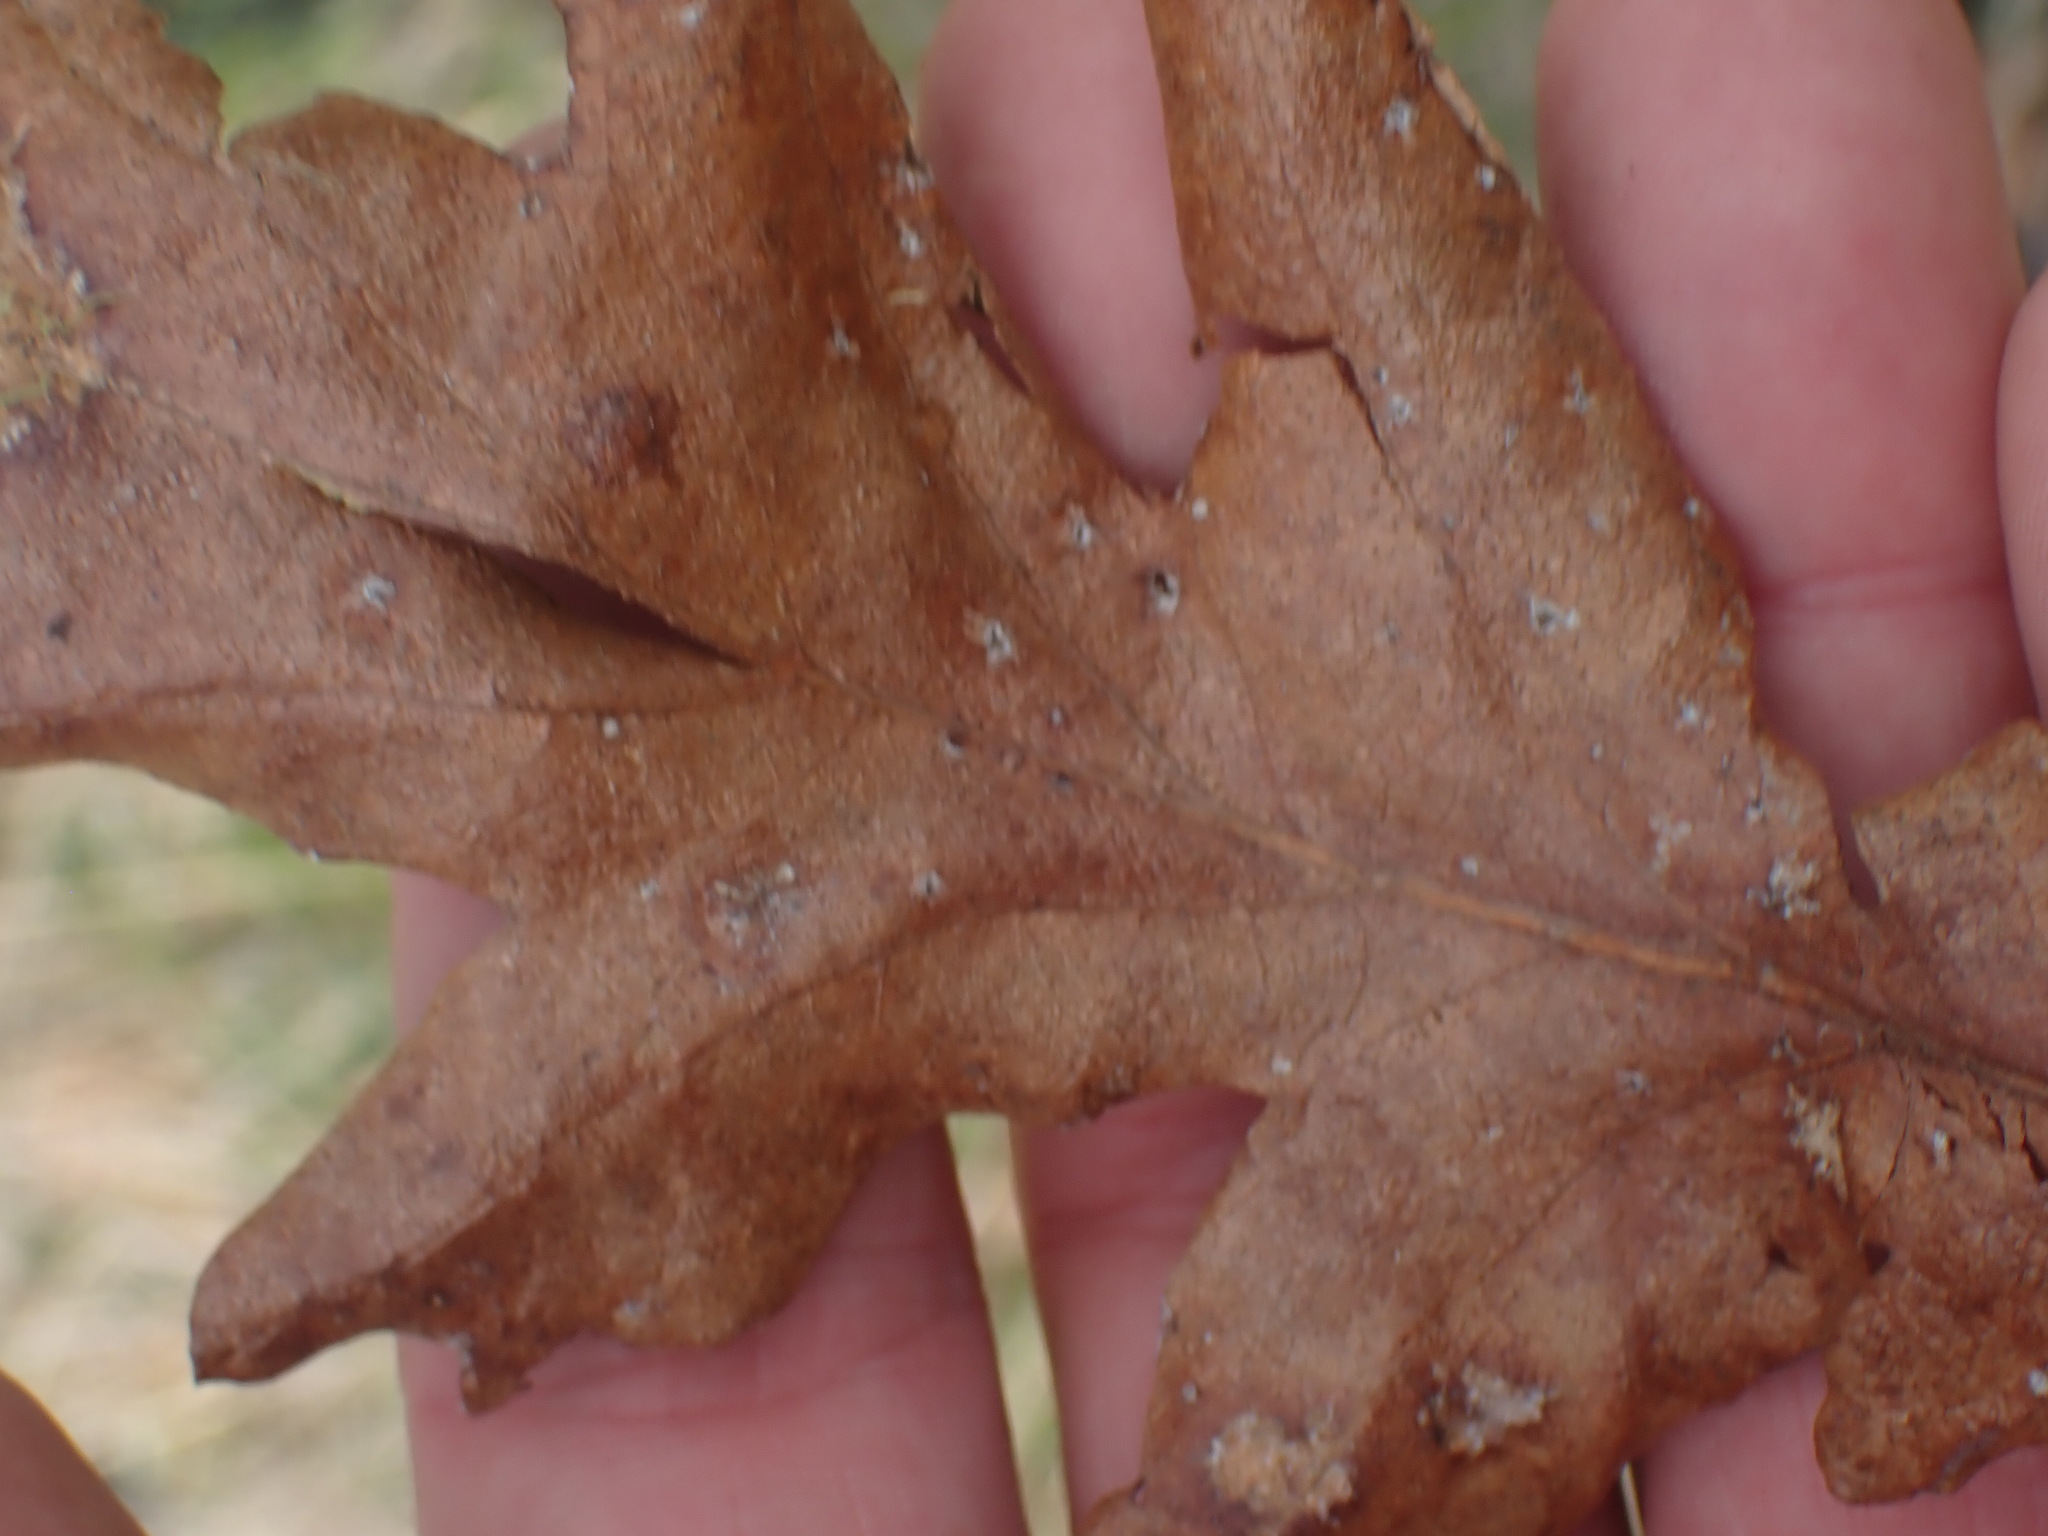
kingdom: Plantae
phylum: Tracheophyta
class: Magnoliopsida
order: Fagales
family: Fagaceae
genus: Quercus
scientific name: Quercus garryana
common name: Garry oak
